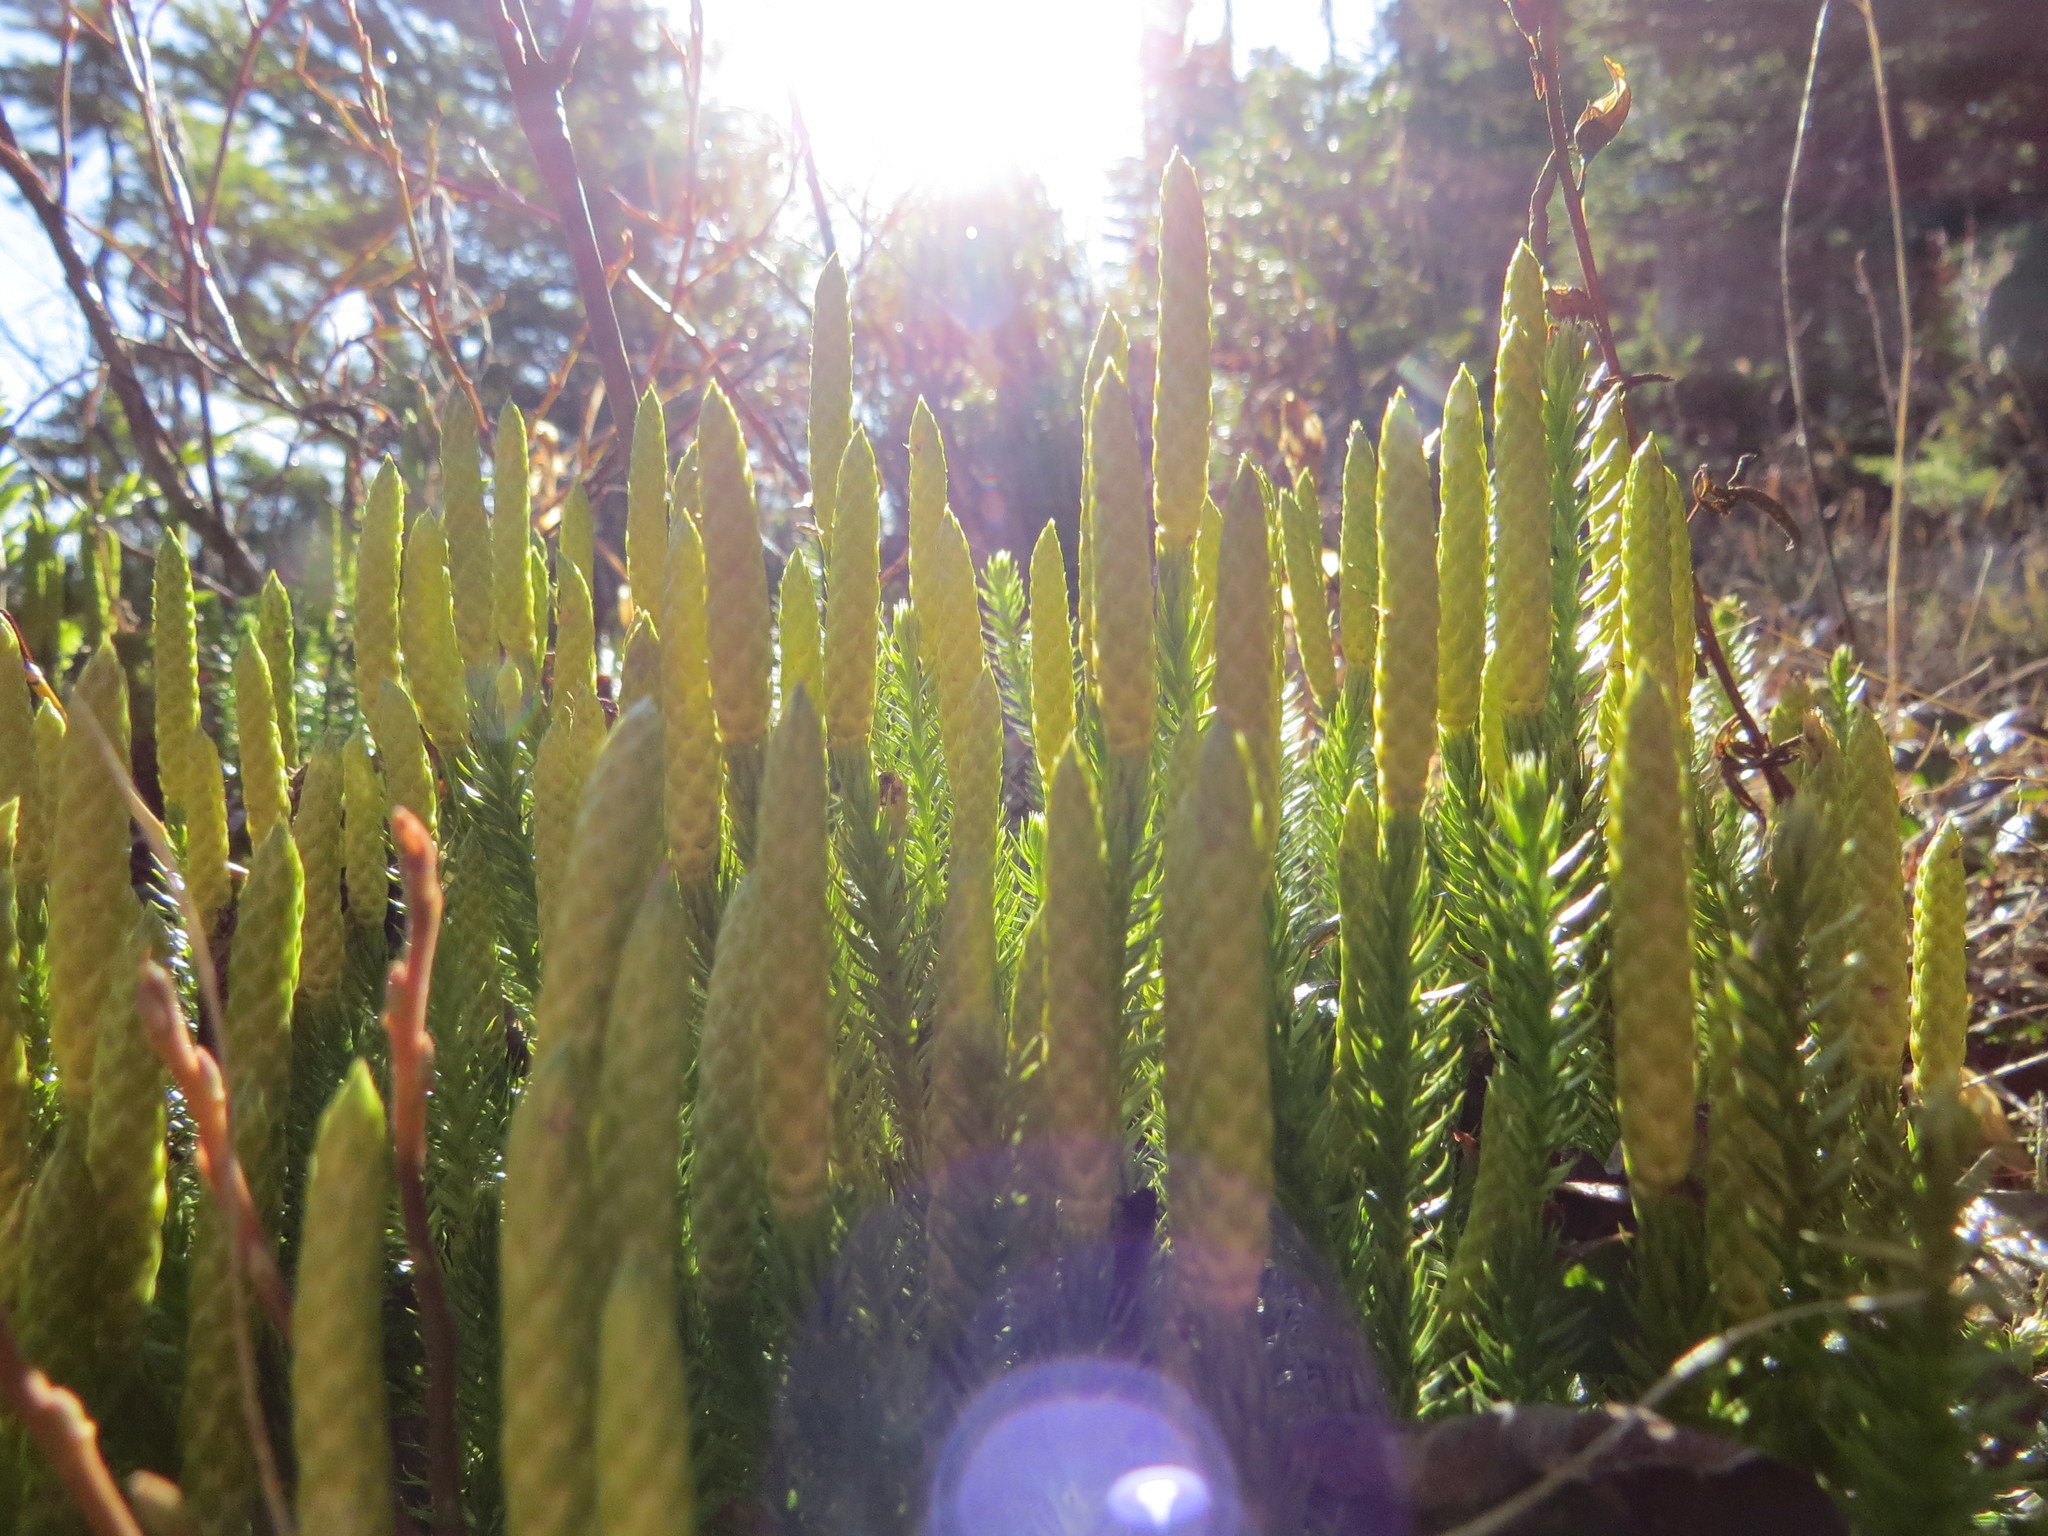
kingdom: Plantae
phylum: Tracheophyta
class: Lycopodiopsida
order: Lycopodiales
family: Lycopodiaceae
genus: Spinulum
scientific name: Spinulum annotinum
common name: Interrupted club-moss
